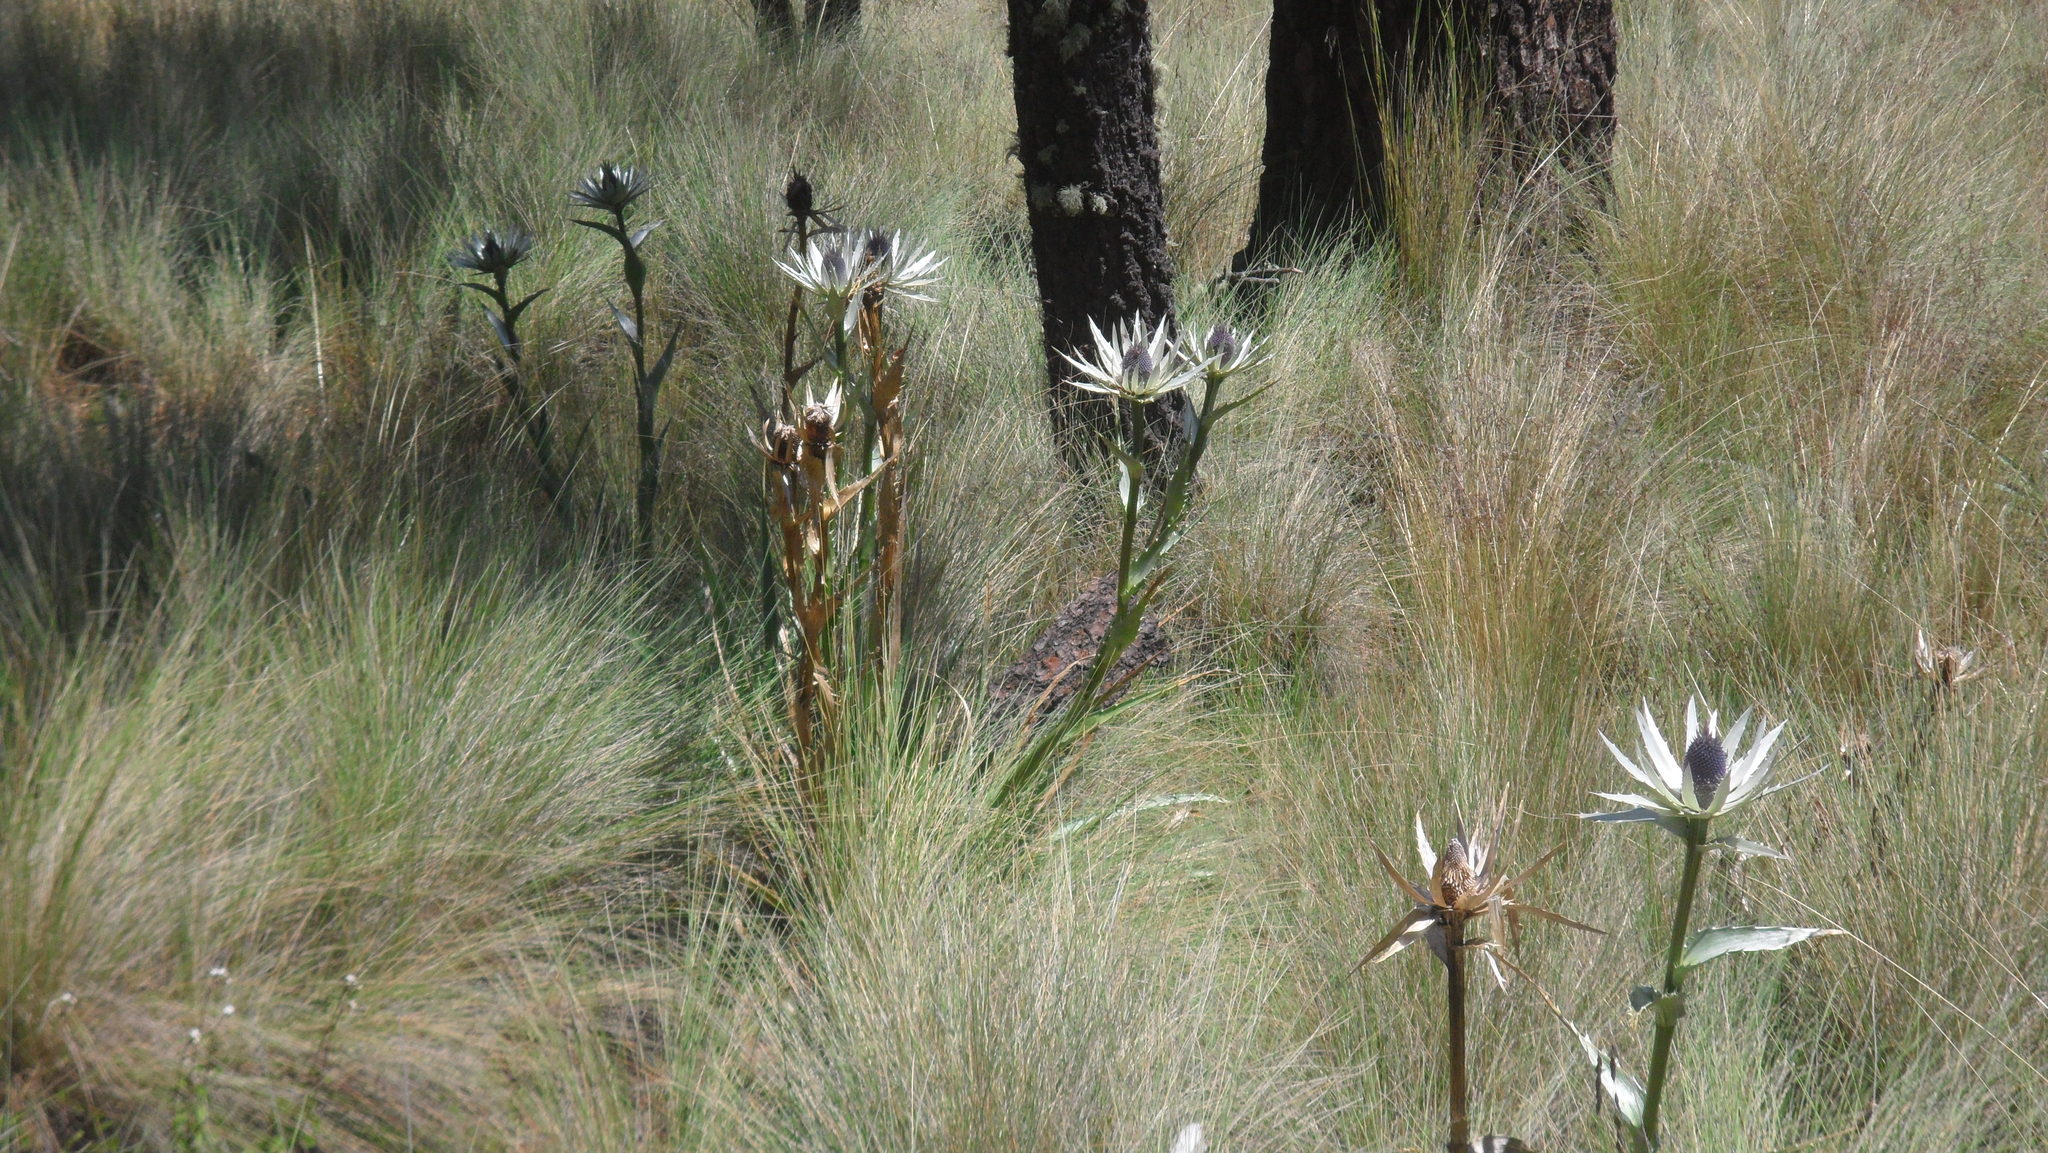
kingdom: Plantae
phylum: Tracheophyta
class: Magnoliopsida
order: Apiales
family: Apiaceae
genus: Eryngium
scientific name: Eryngium proteiflorum
